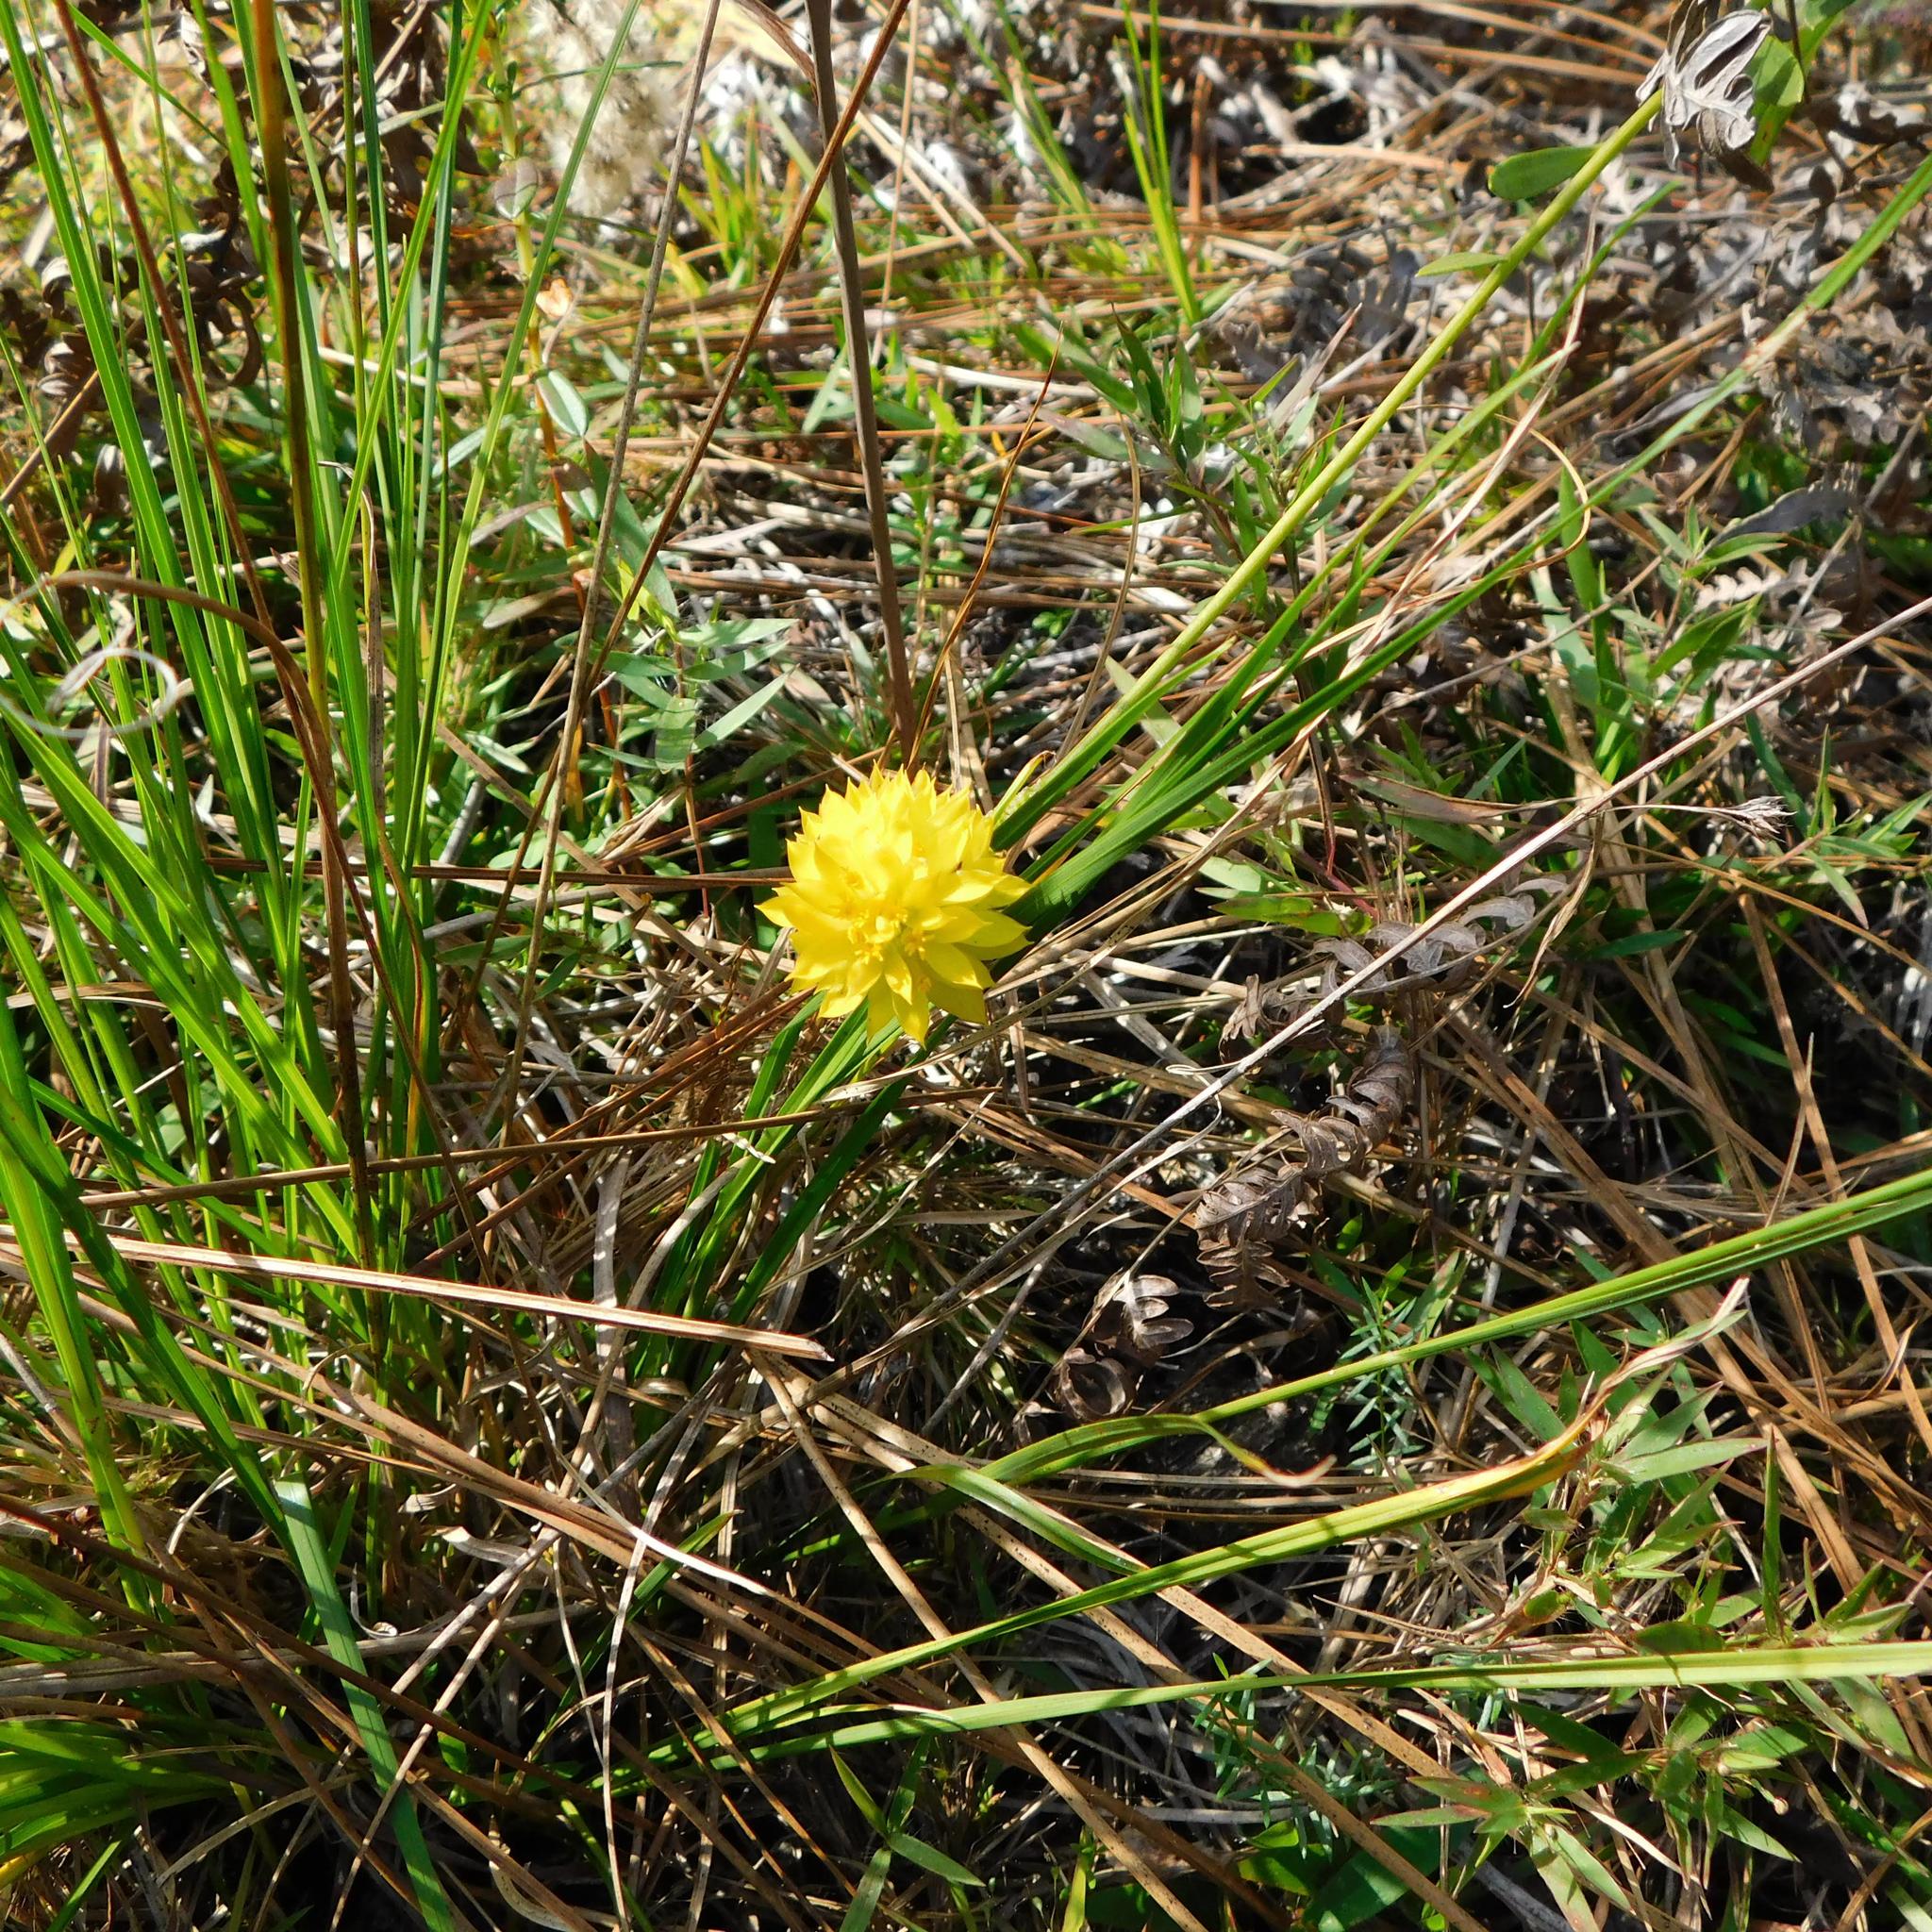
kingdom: Plantae
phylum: Tracheophyta
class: Magnoliopsida
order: Fabales
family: Polygalaceae
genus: Polygala
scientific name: Polygala rugelii
